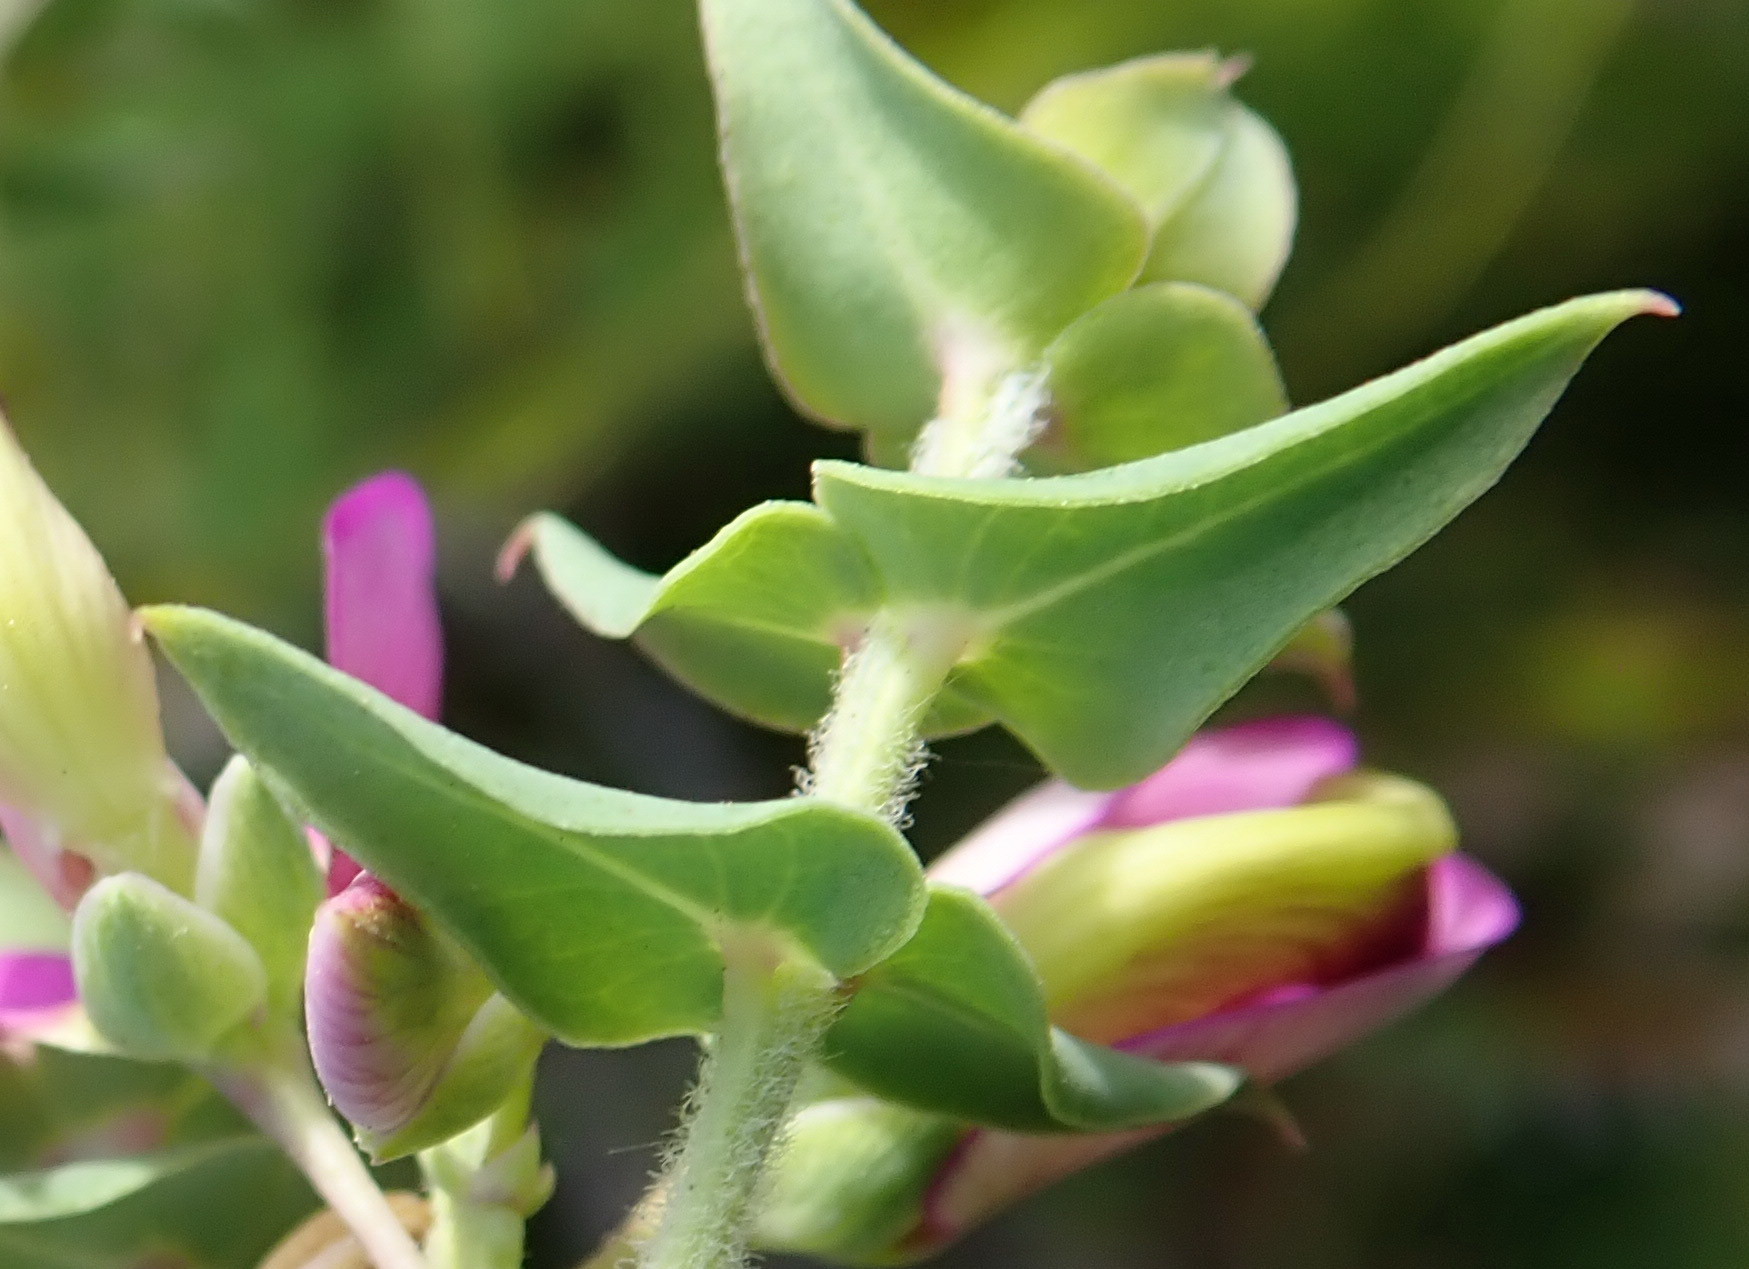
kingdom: Plantae
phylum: Tracheophyta
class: Magnoliopsida
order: Fabales
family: Polygalaceae
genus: Polygala
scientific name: Polygala fruticosa
